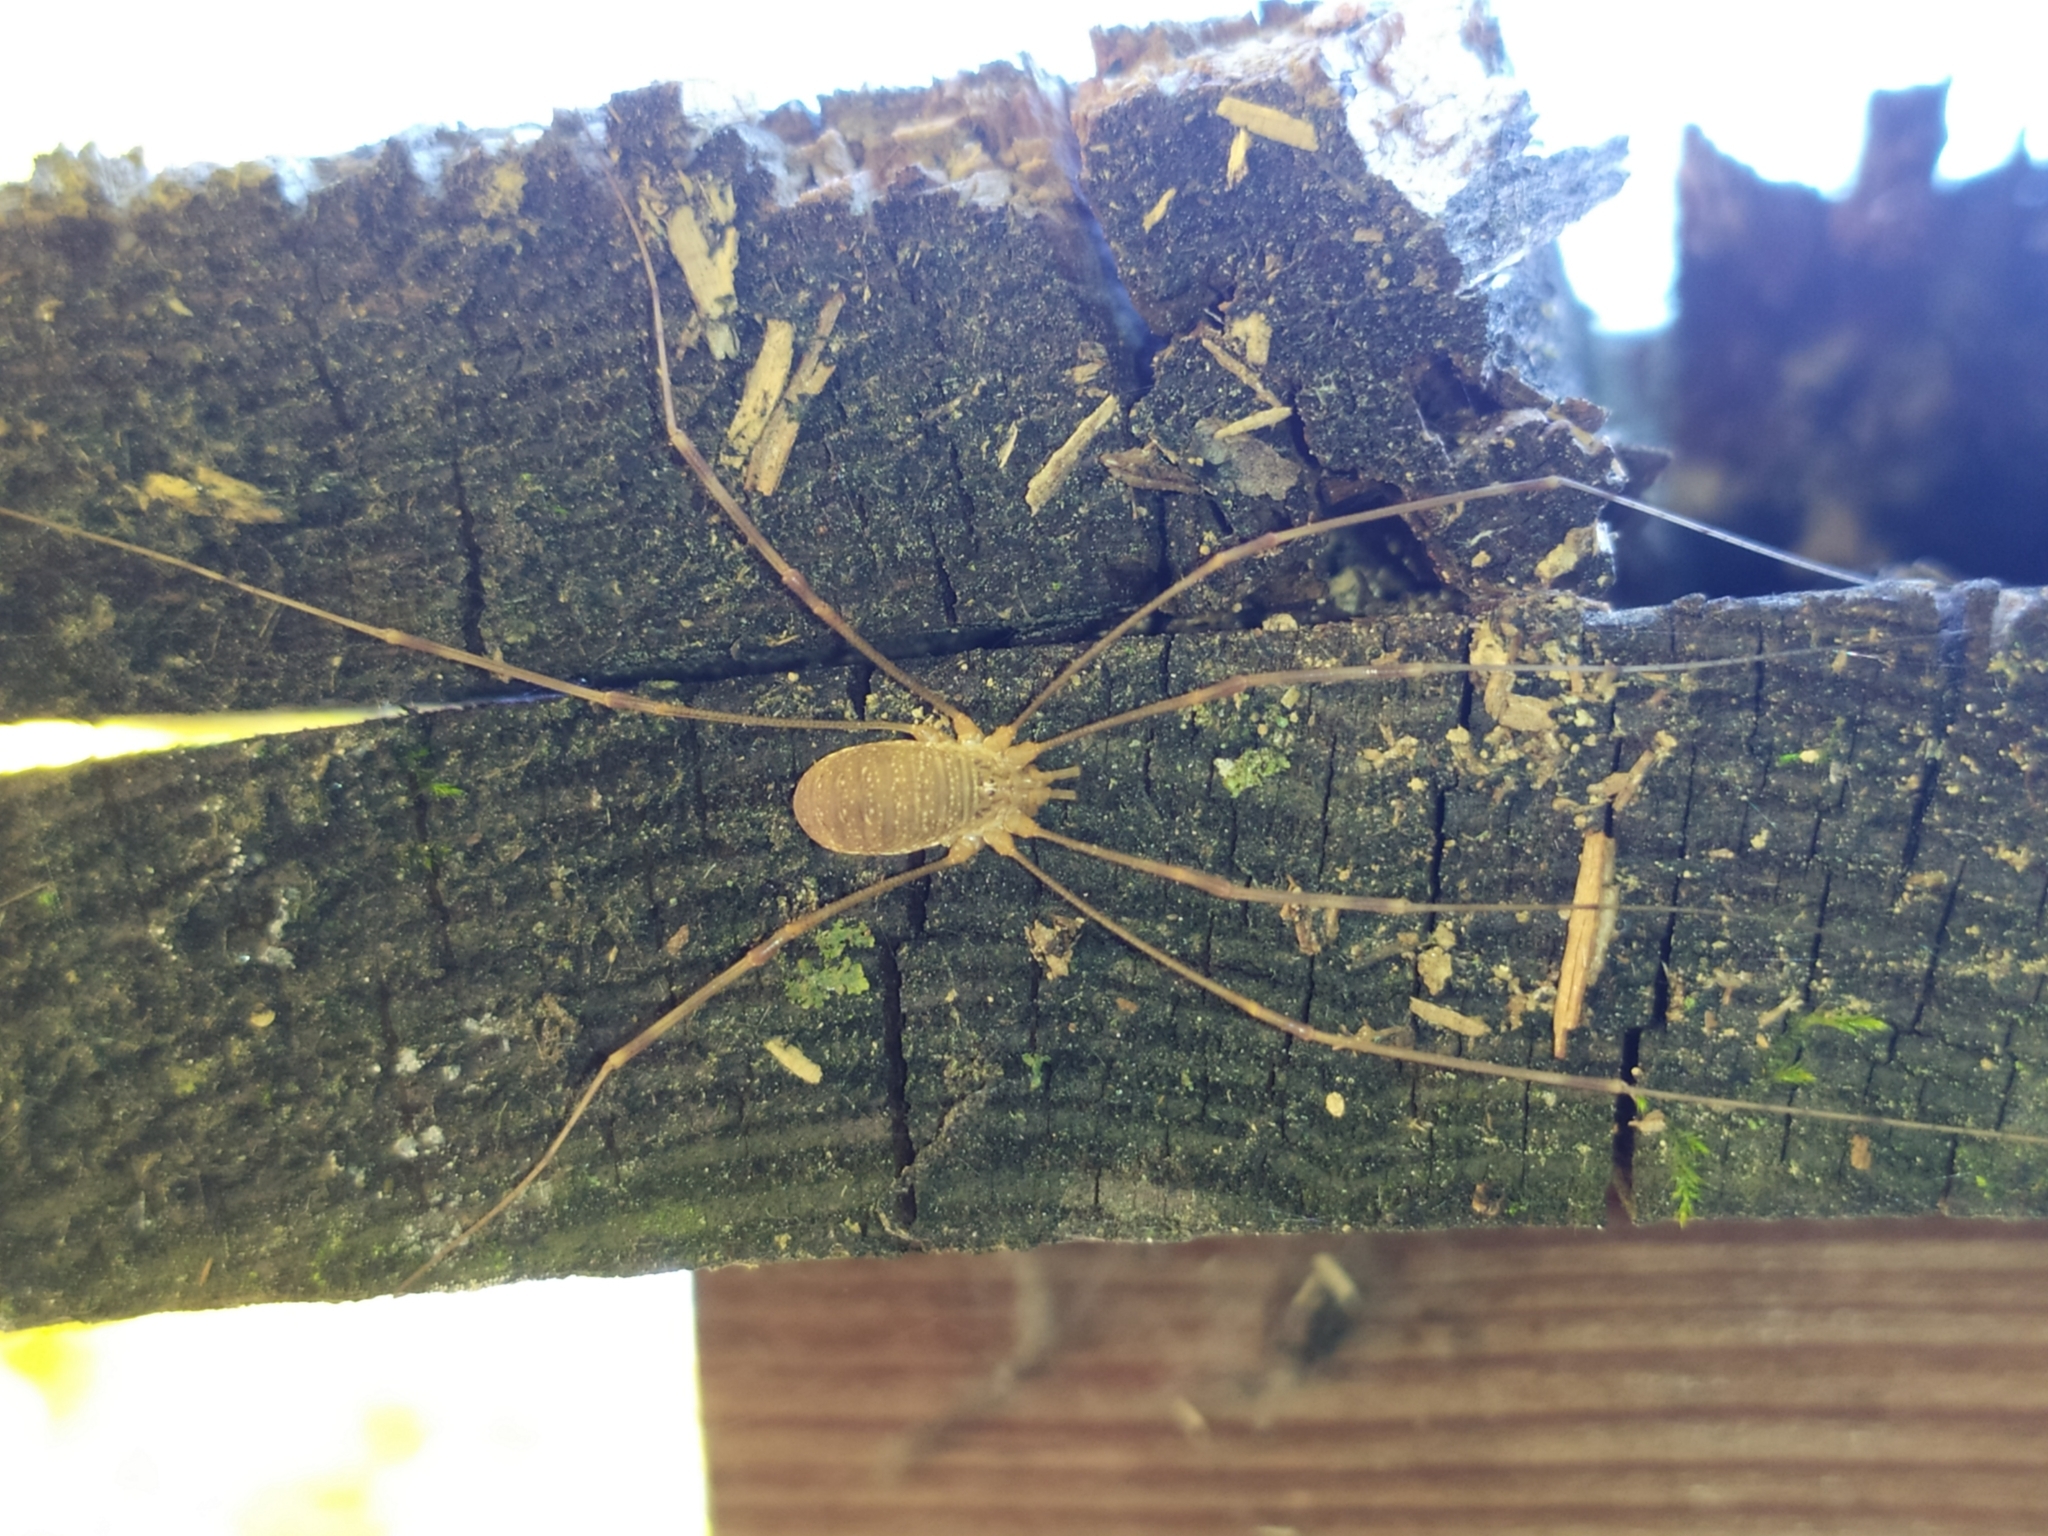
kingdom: Animalia
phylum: Arthropoda
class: Arachnida
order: Opiliones
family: Phalangiidae
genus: Opilio
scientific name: Opilio canestrinii
